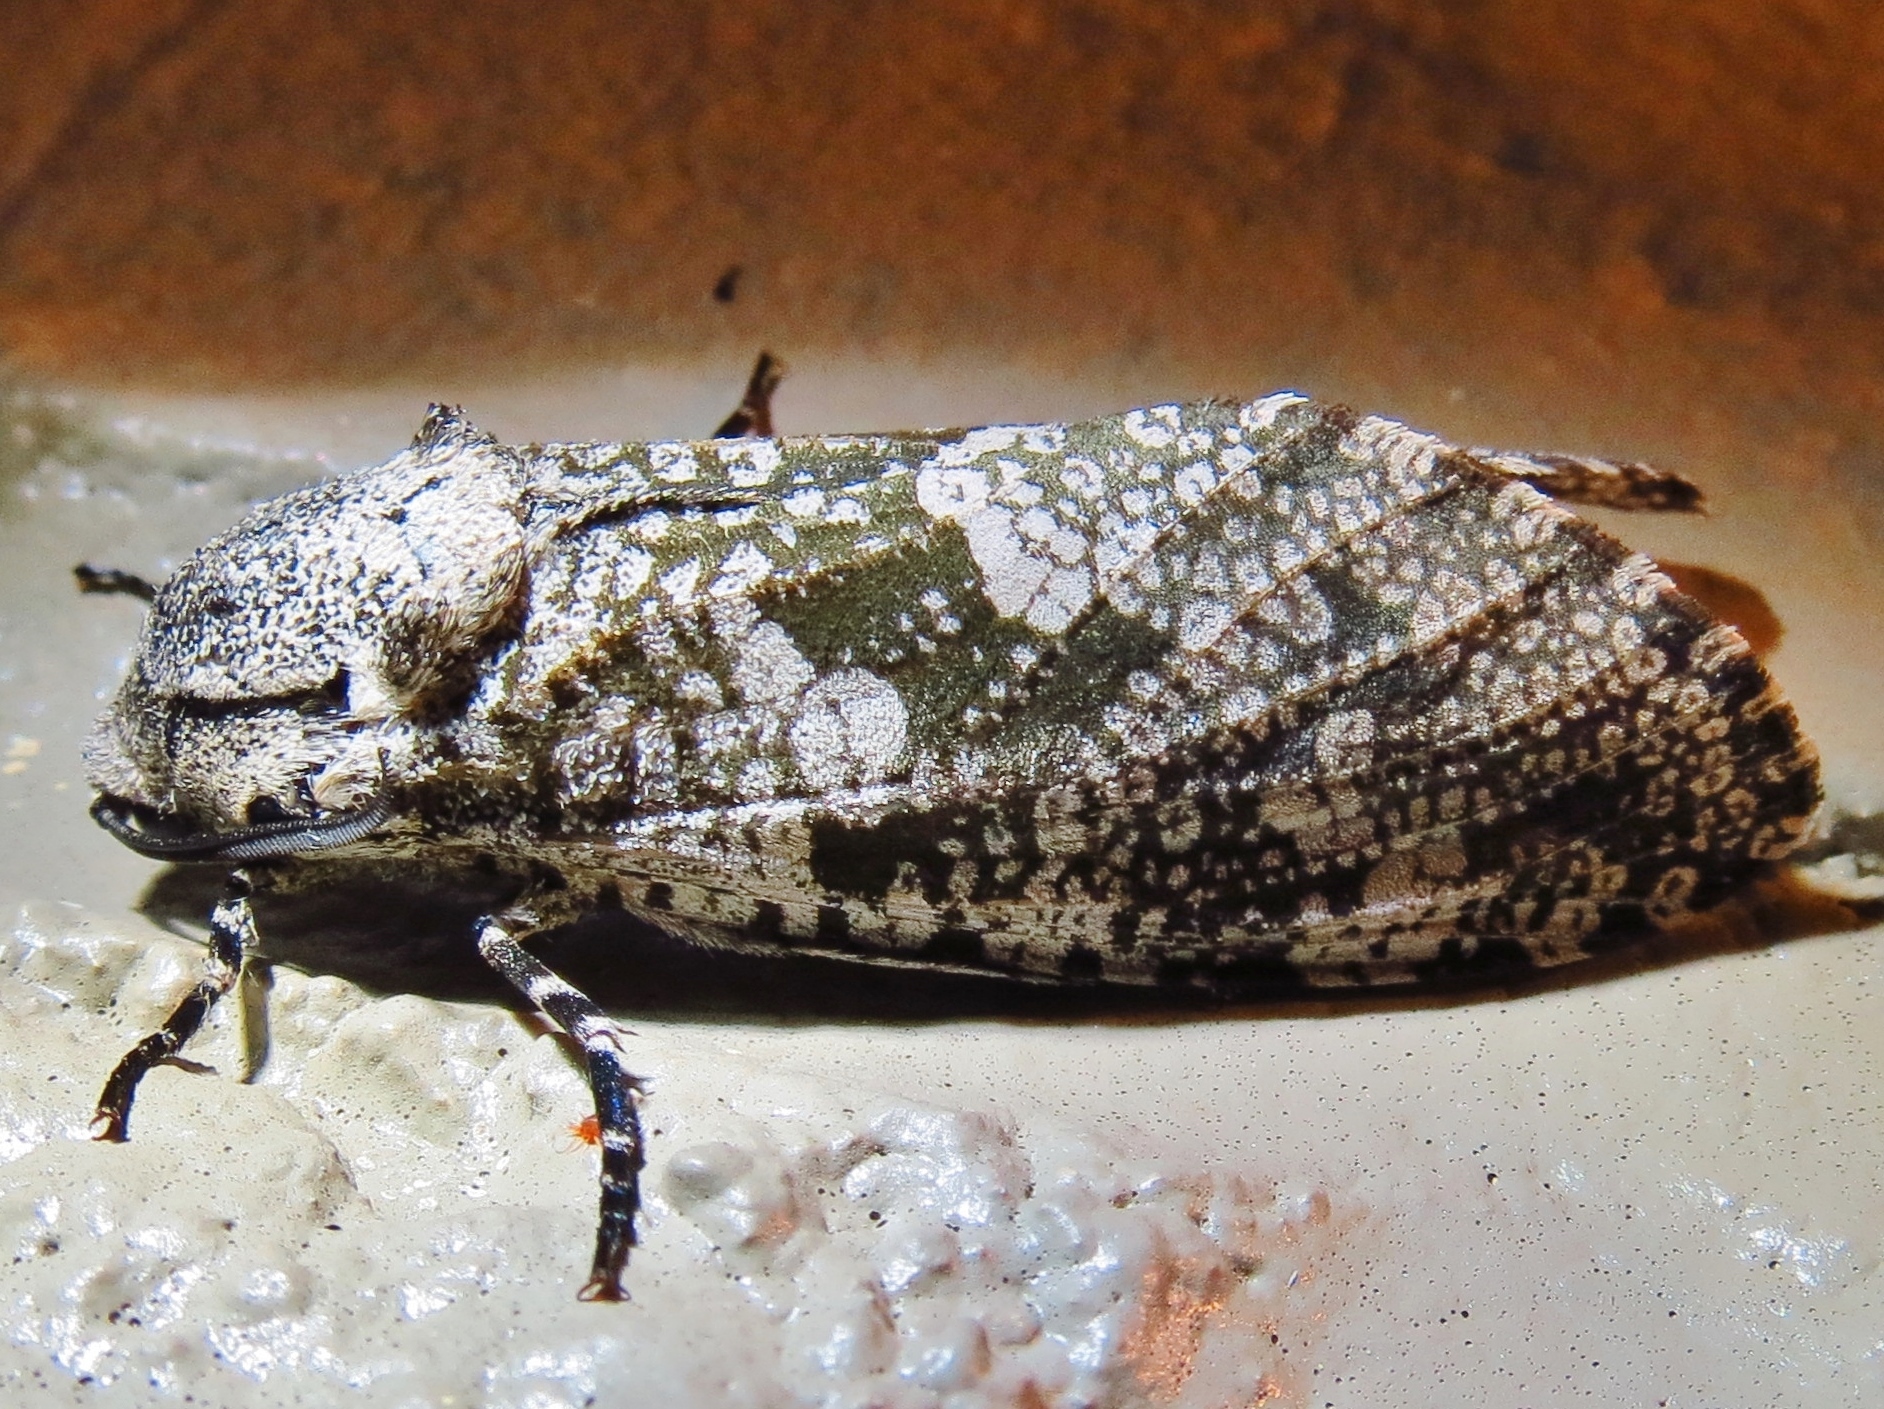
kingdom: Animalia
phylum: Arthropoda
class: Insecta
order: Lepidoptera
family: Cossidae
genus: Prionoxystus
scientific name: Prionoxystus robiniae
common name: Carpenterworm
